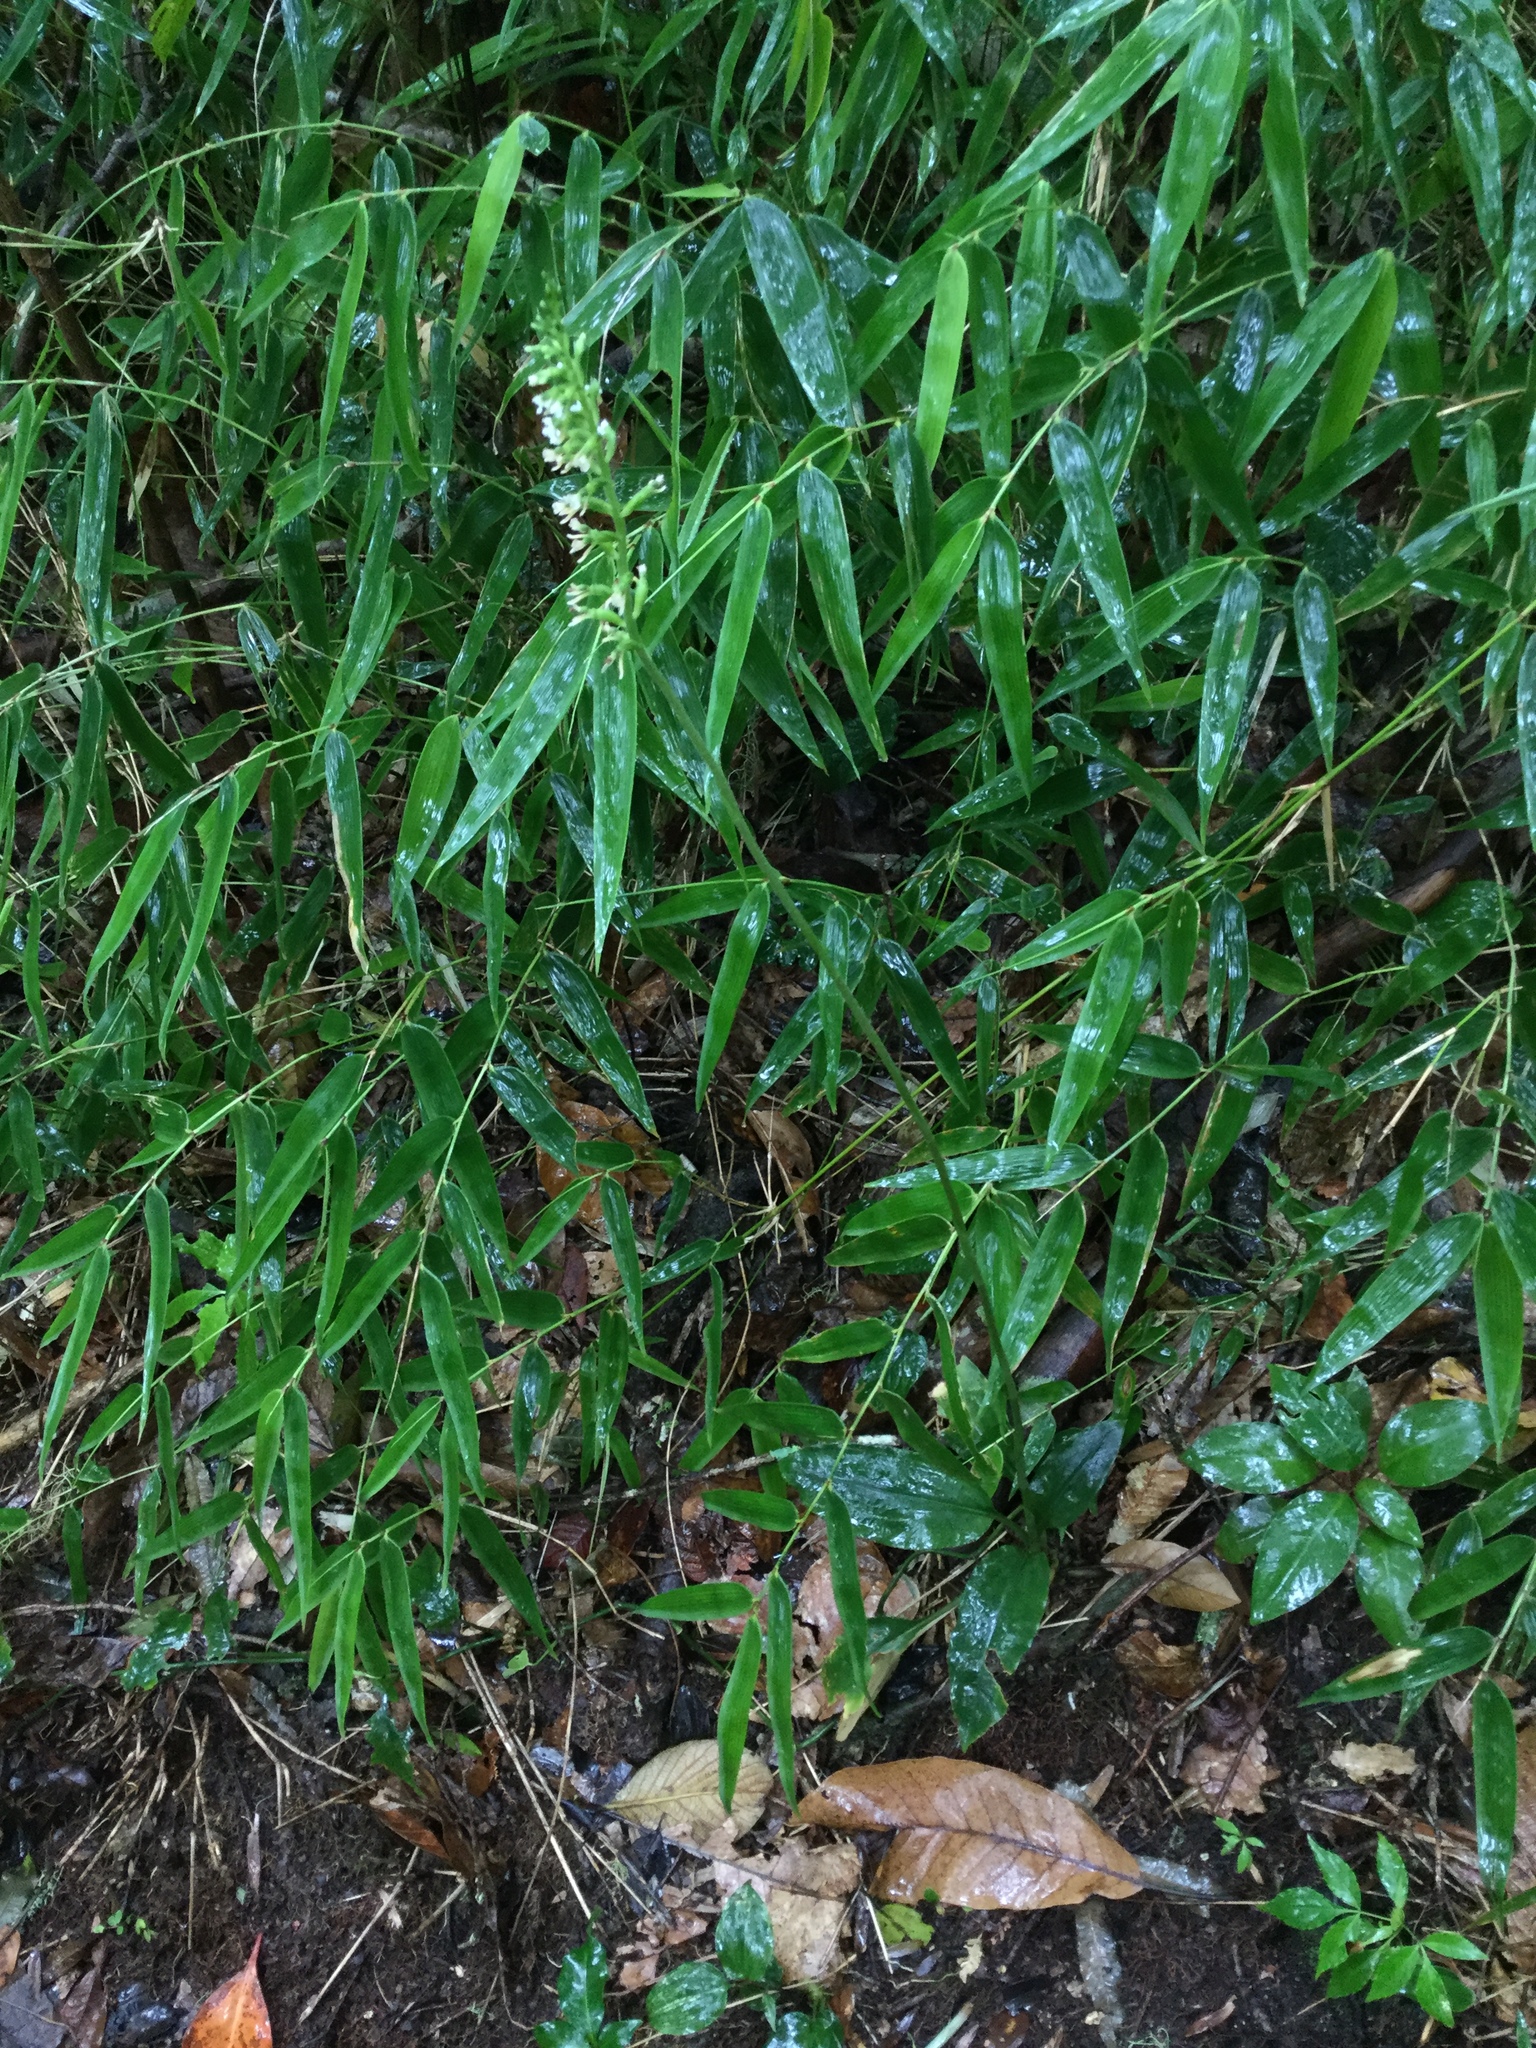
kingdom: Plantae
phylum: Tracheophyta
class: Liliopsida
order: Asparagales
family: Orchidaceae
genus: Cyclopogon
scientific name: Cyclopogon papilio
